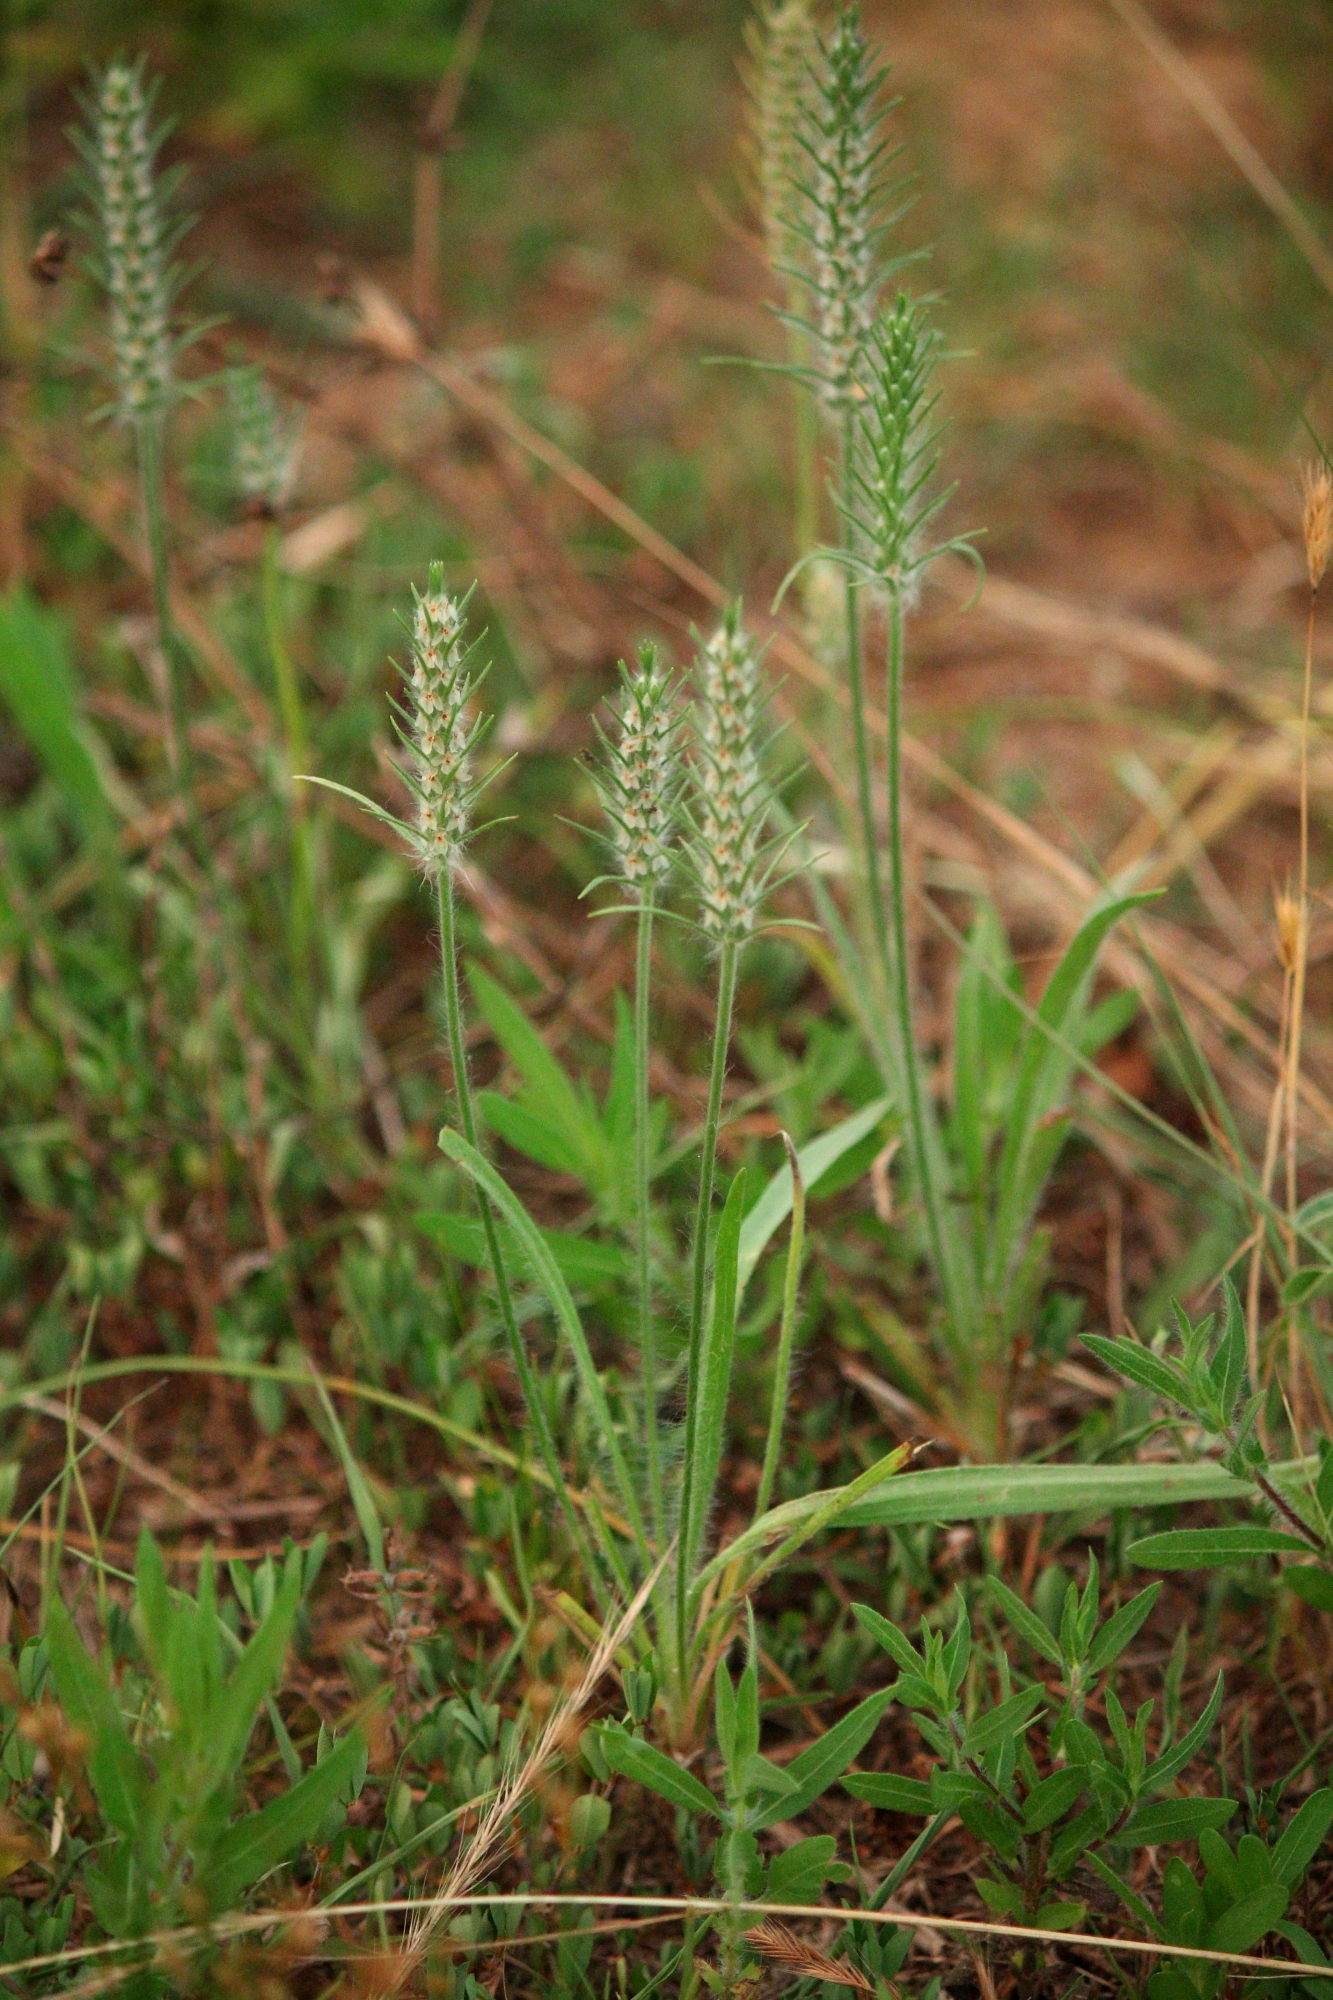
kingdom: Plantae
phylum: Tracheophyta
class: Magnoliopsida
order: Lamiales
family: Plantaginaceae
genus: Plantago
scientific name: Plantago aristata
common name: Bracted plantain
